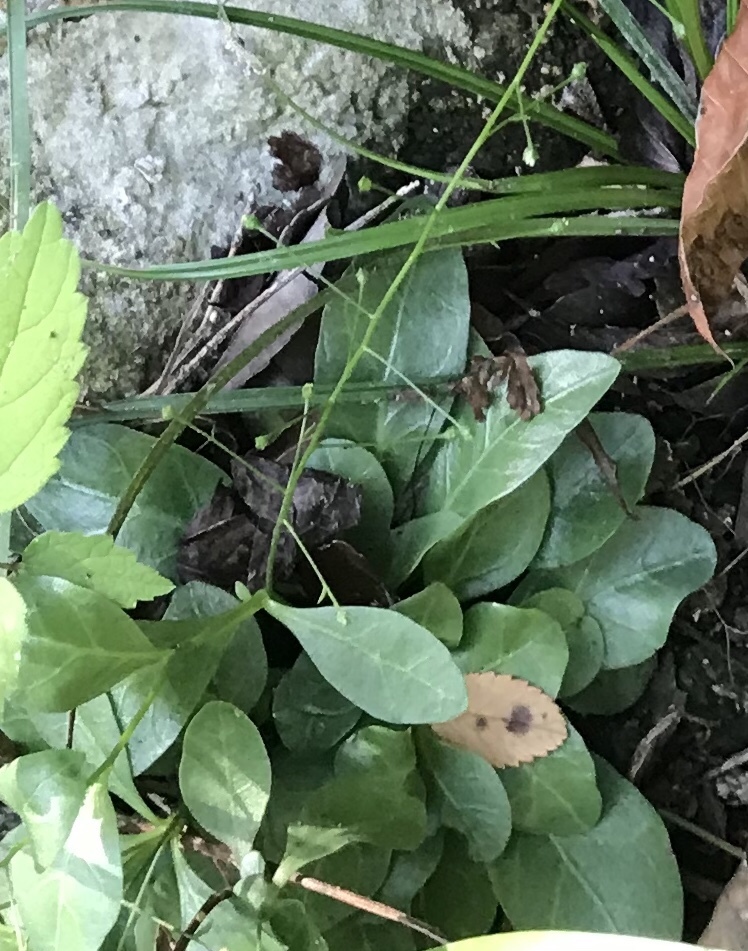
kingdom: Plantae
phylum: Tracheophyta
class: Magnoliopsida
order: Ericales
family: Primulaceae
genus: Samolus
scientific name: Samolus parviflorus
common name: False water pimpernel
